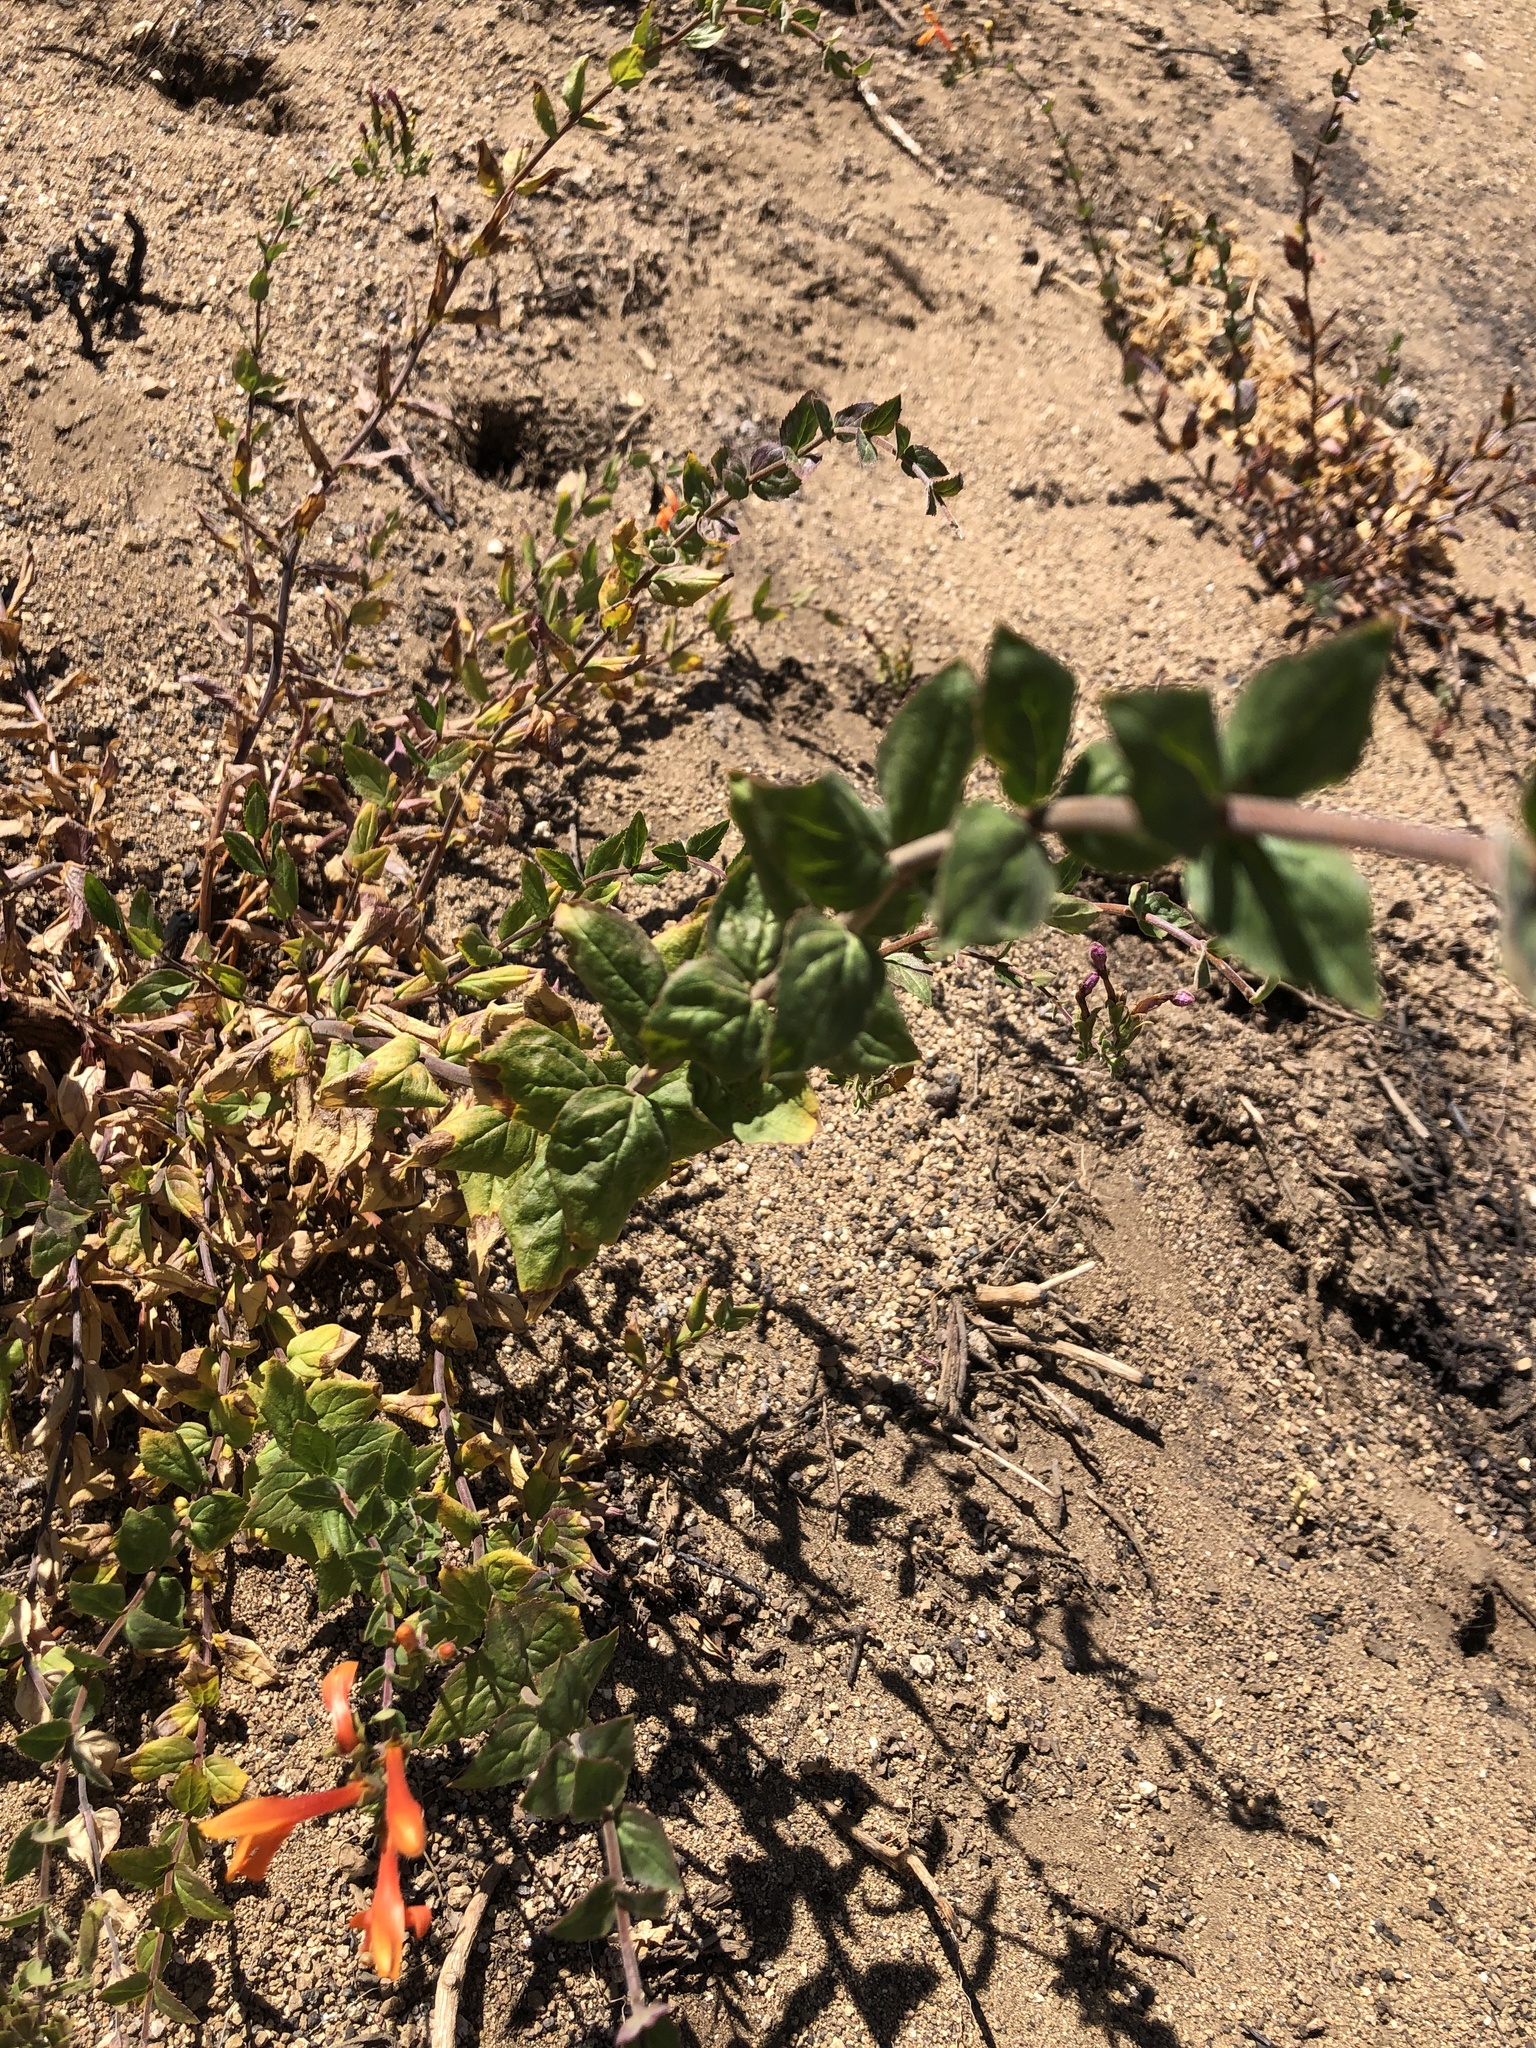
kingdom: Plantae
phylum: Tracheophyta
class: Magnoliopsida
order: Lamiales
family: Plantaginaceae
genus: Keckiella
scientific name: Keckiella cordifolia
